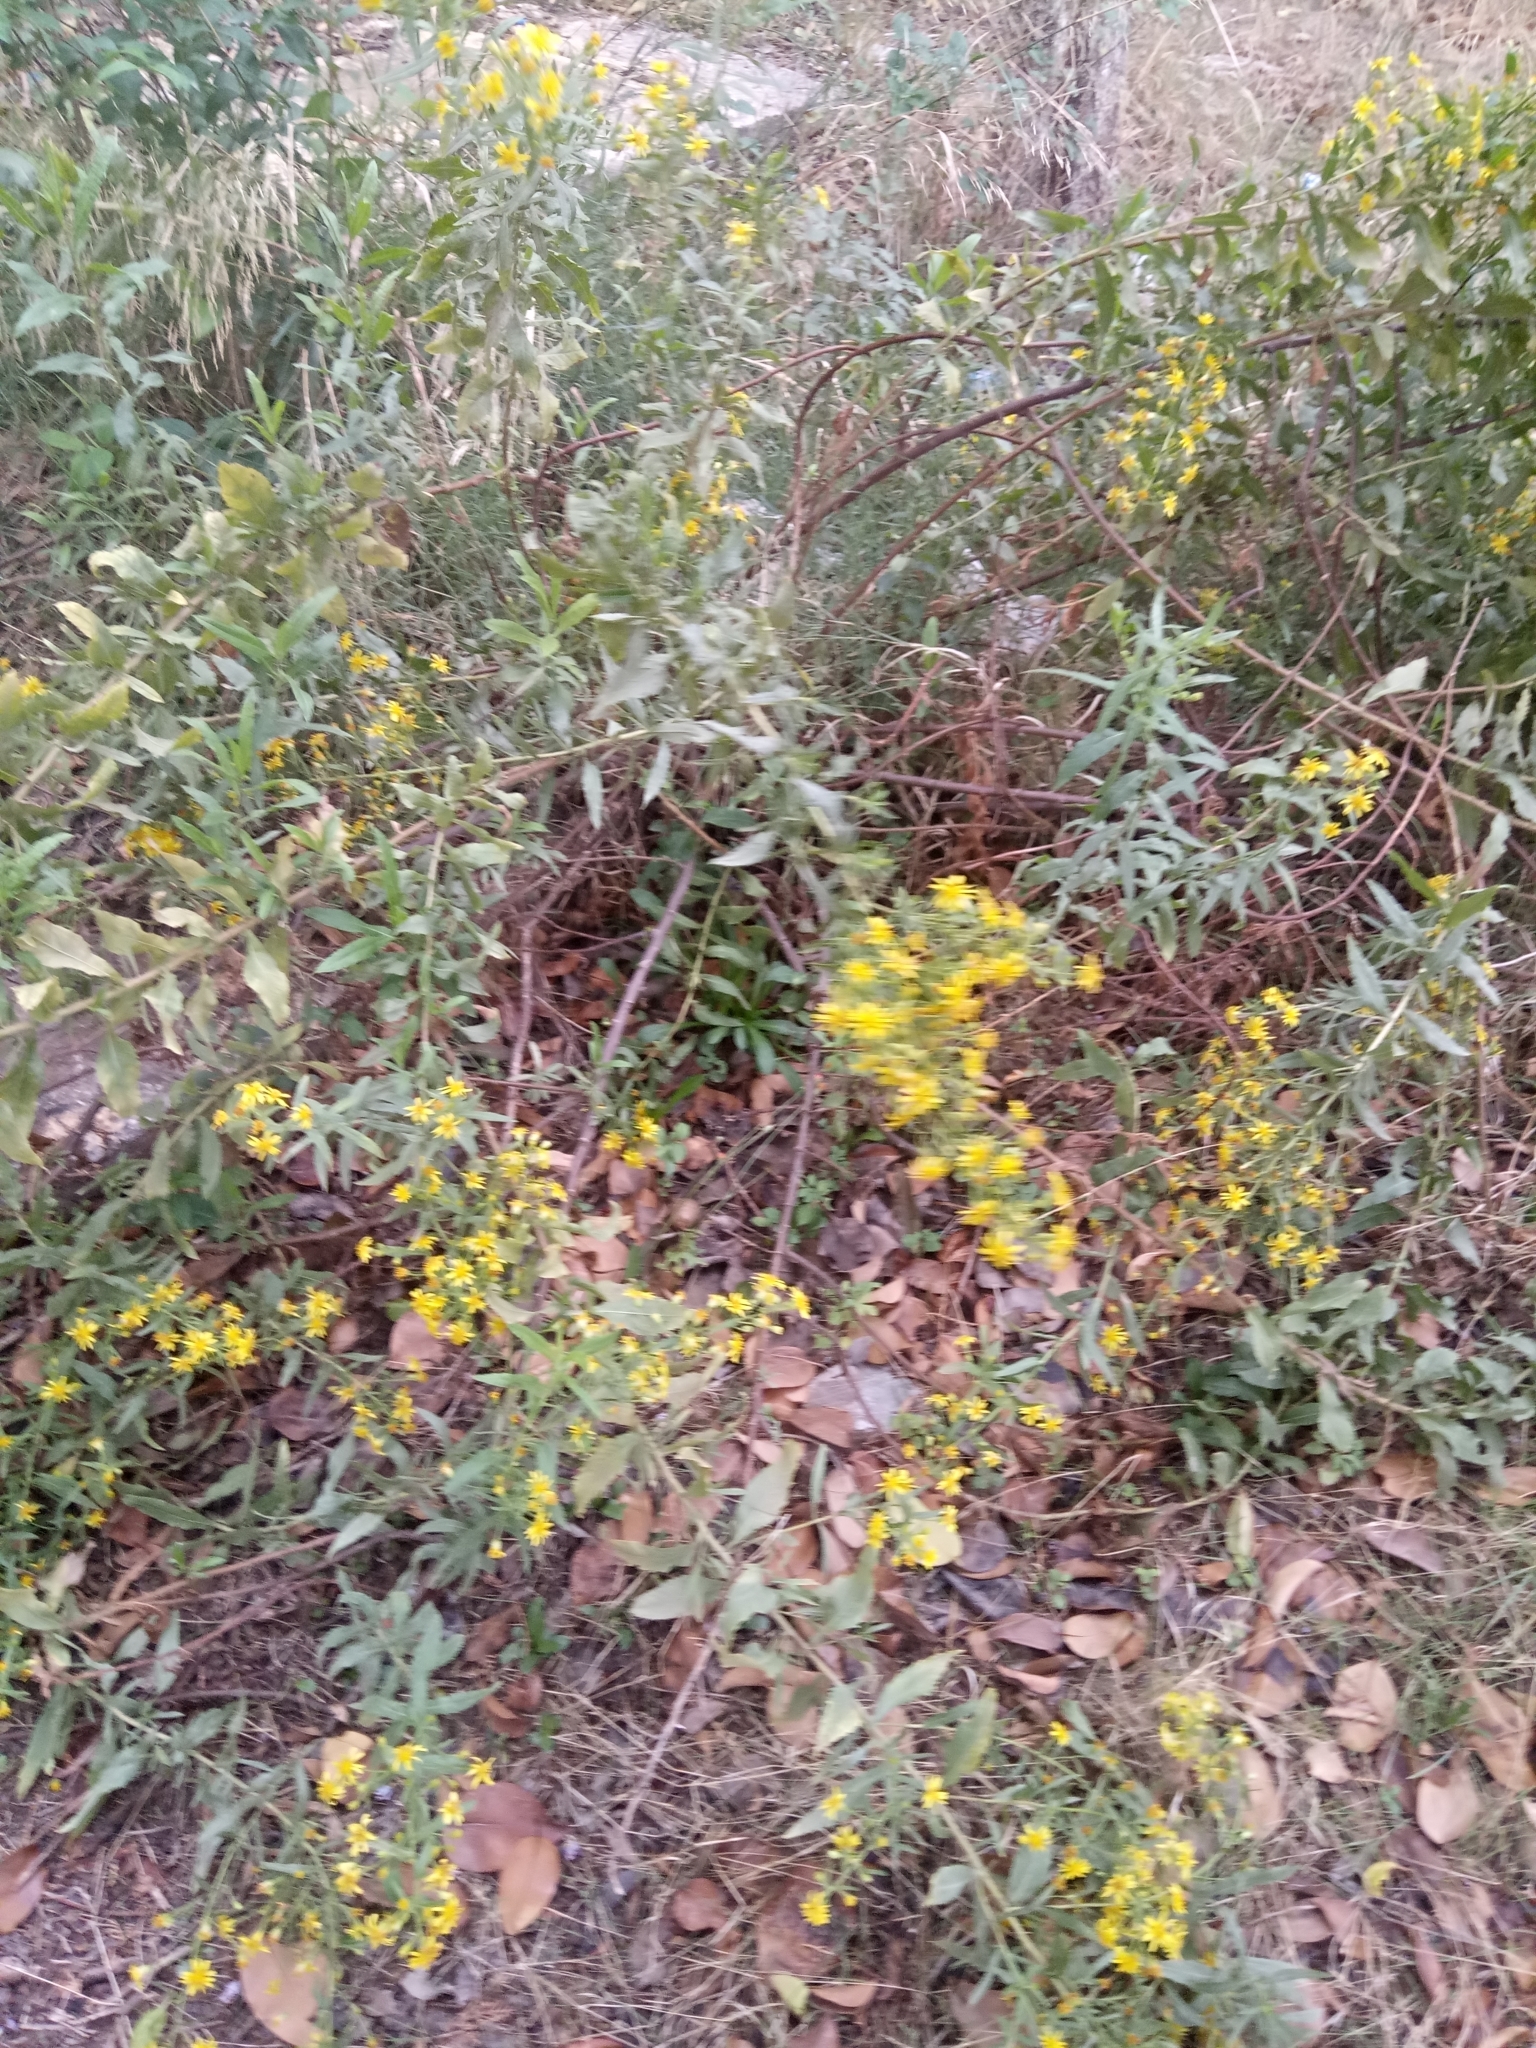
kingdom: Plantae
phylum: Tracheophyta
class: Magnoliopsida
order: Asterales
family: Asteraceae
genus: Dittrichia
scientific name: Dittrichia viscosa
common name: Woody fleabane
